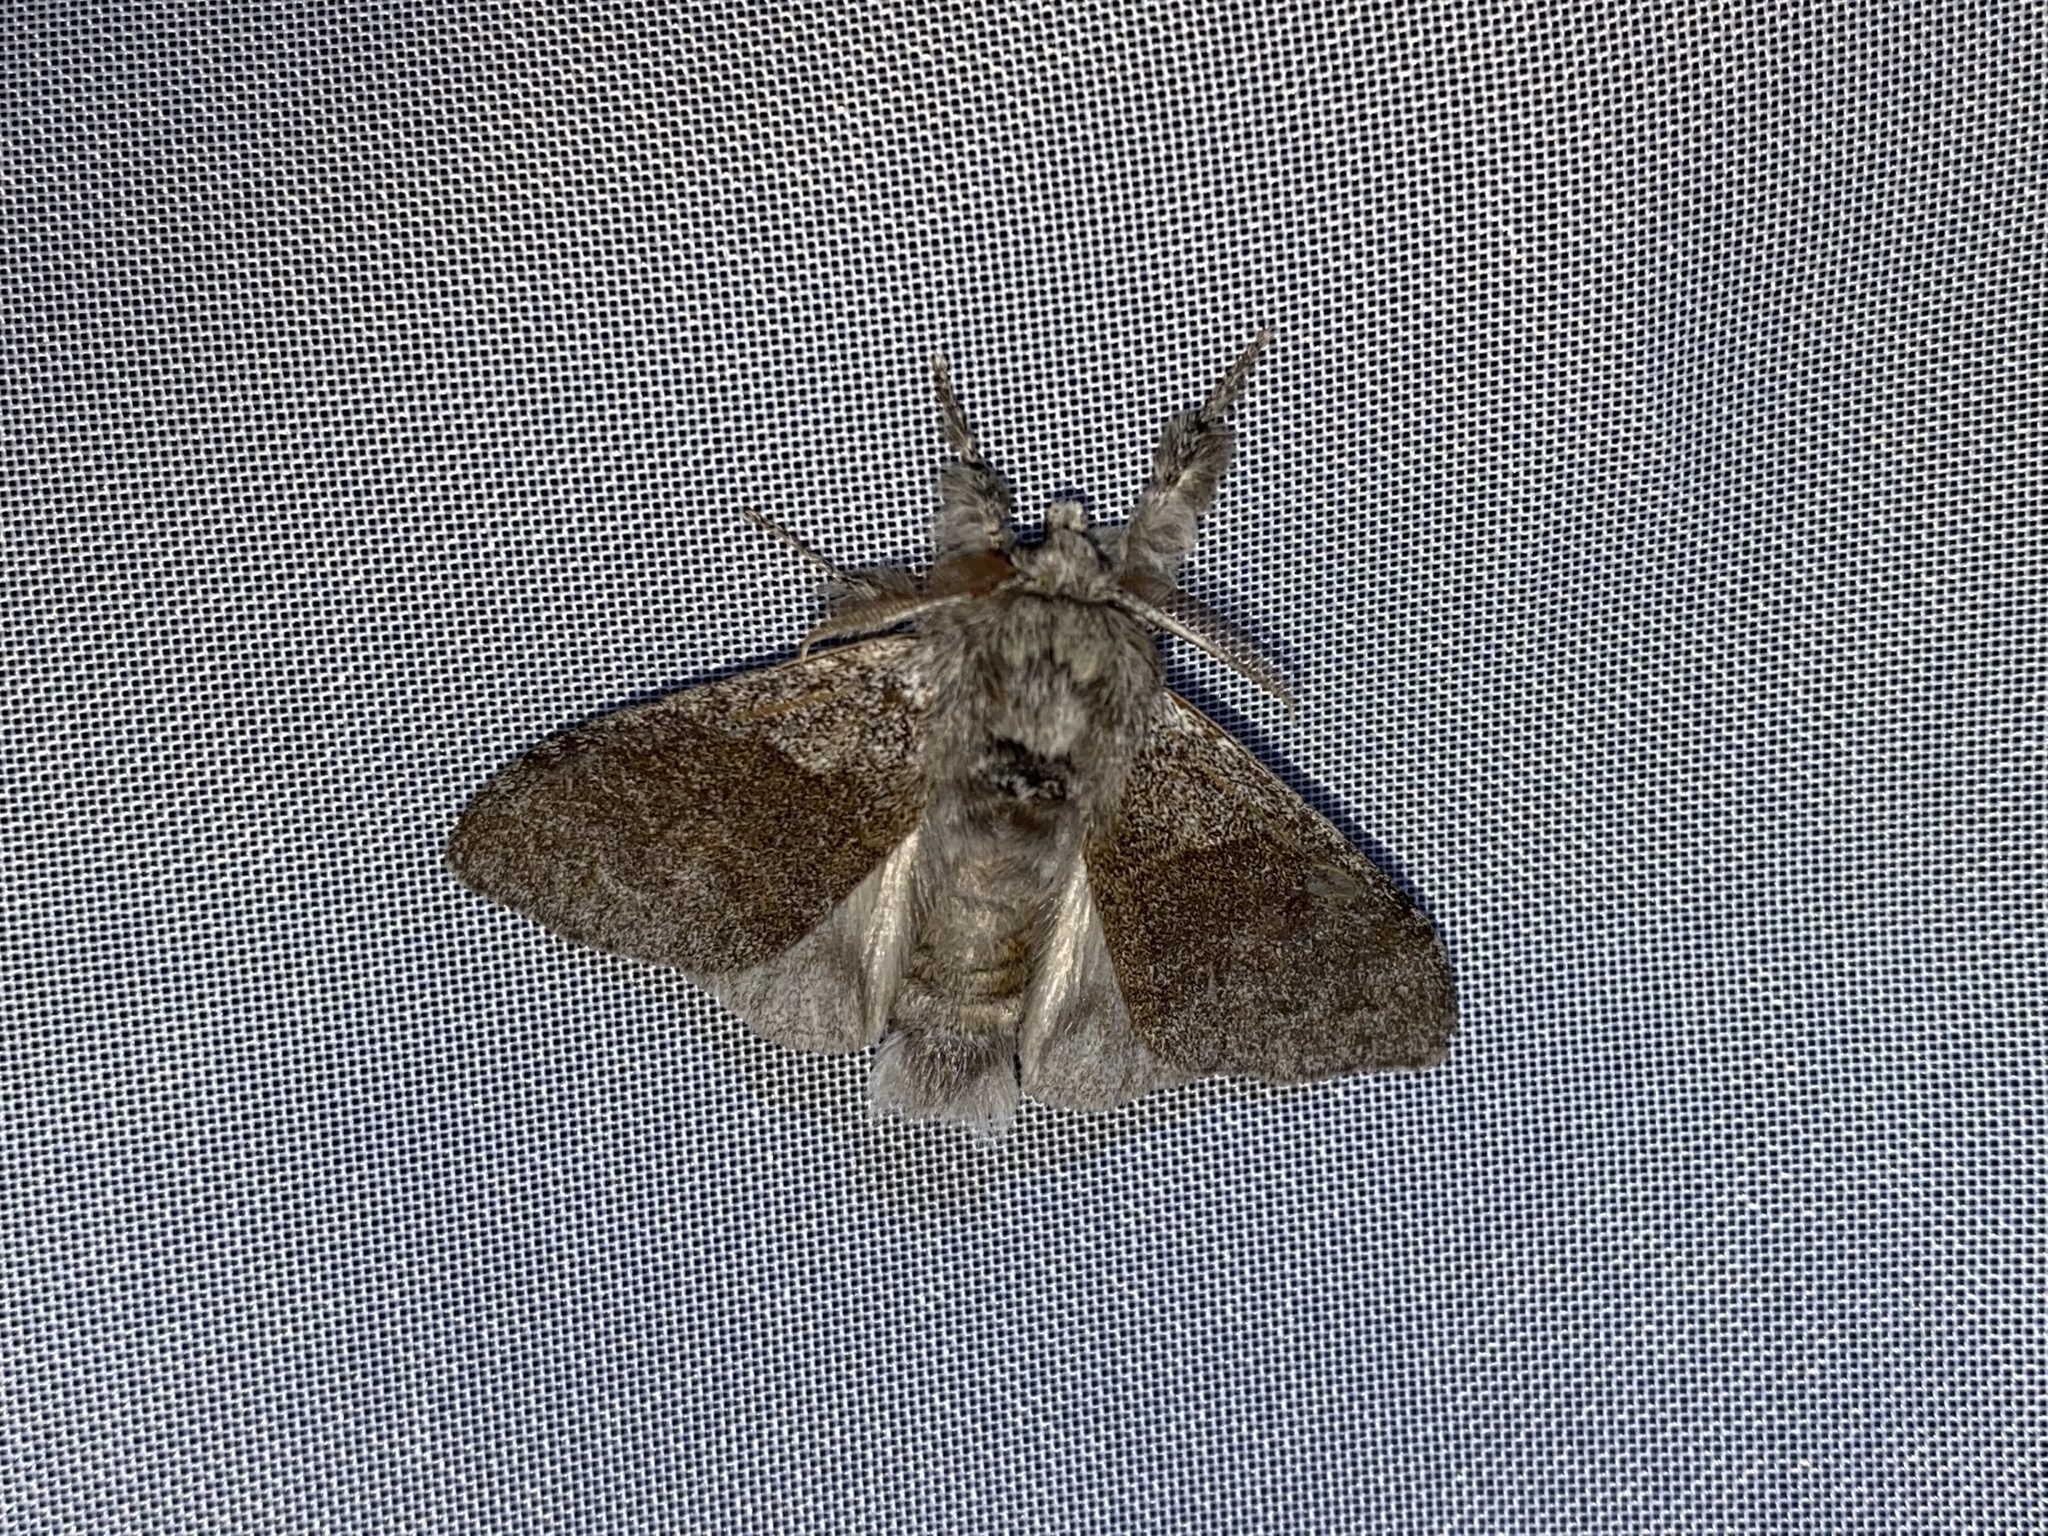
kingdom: Animalia
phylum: Arthropoda
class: Insecta
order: Lepidoptera
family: Erebidae
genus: Calliteara
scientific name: Calliteara pudibunda
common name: Pale tussock
